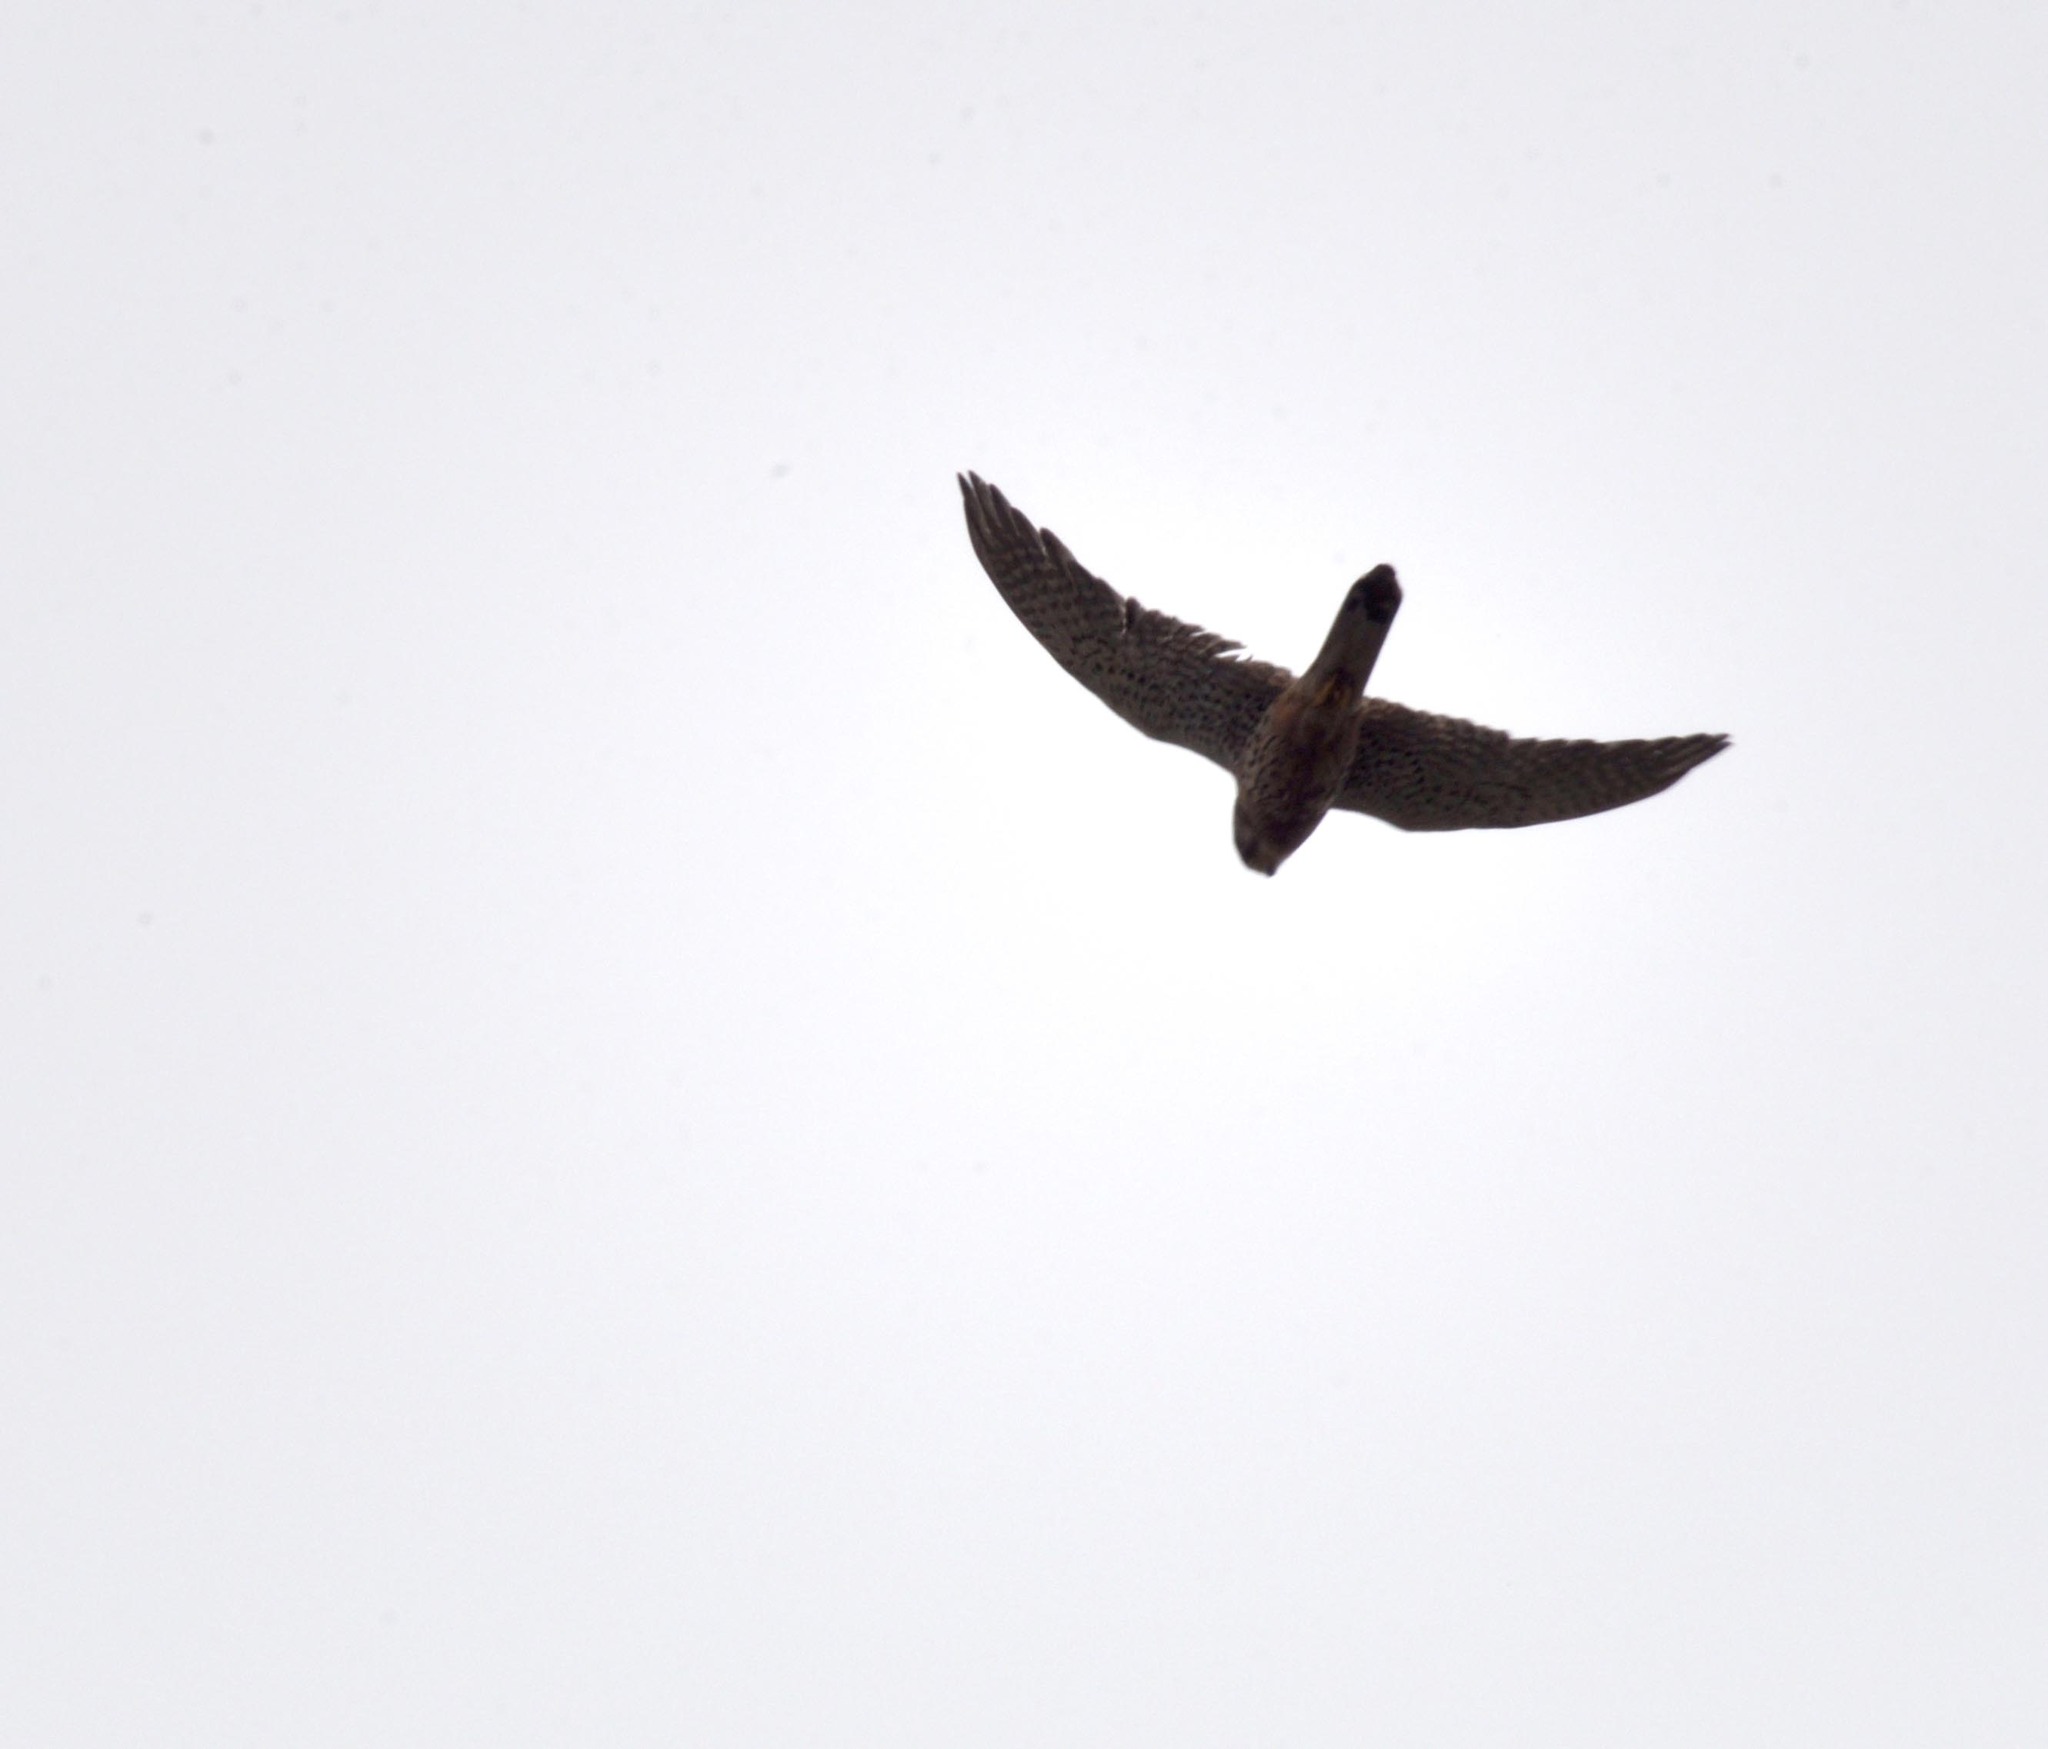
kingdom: Animalia
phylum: Chordata
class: Aves
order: Falconiformes
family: Falconidae
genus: Falco
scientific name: Falco tinnunculus
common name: Common kestrel
